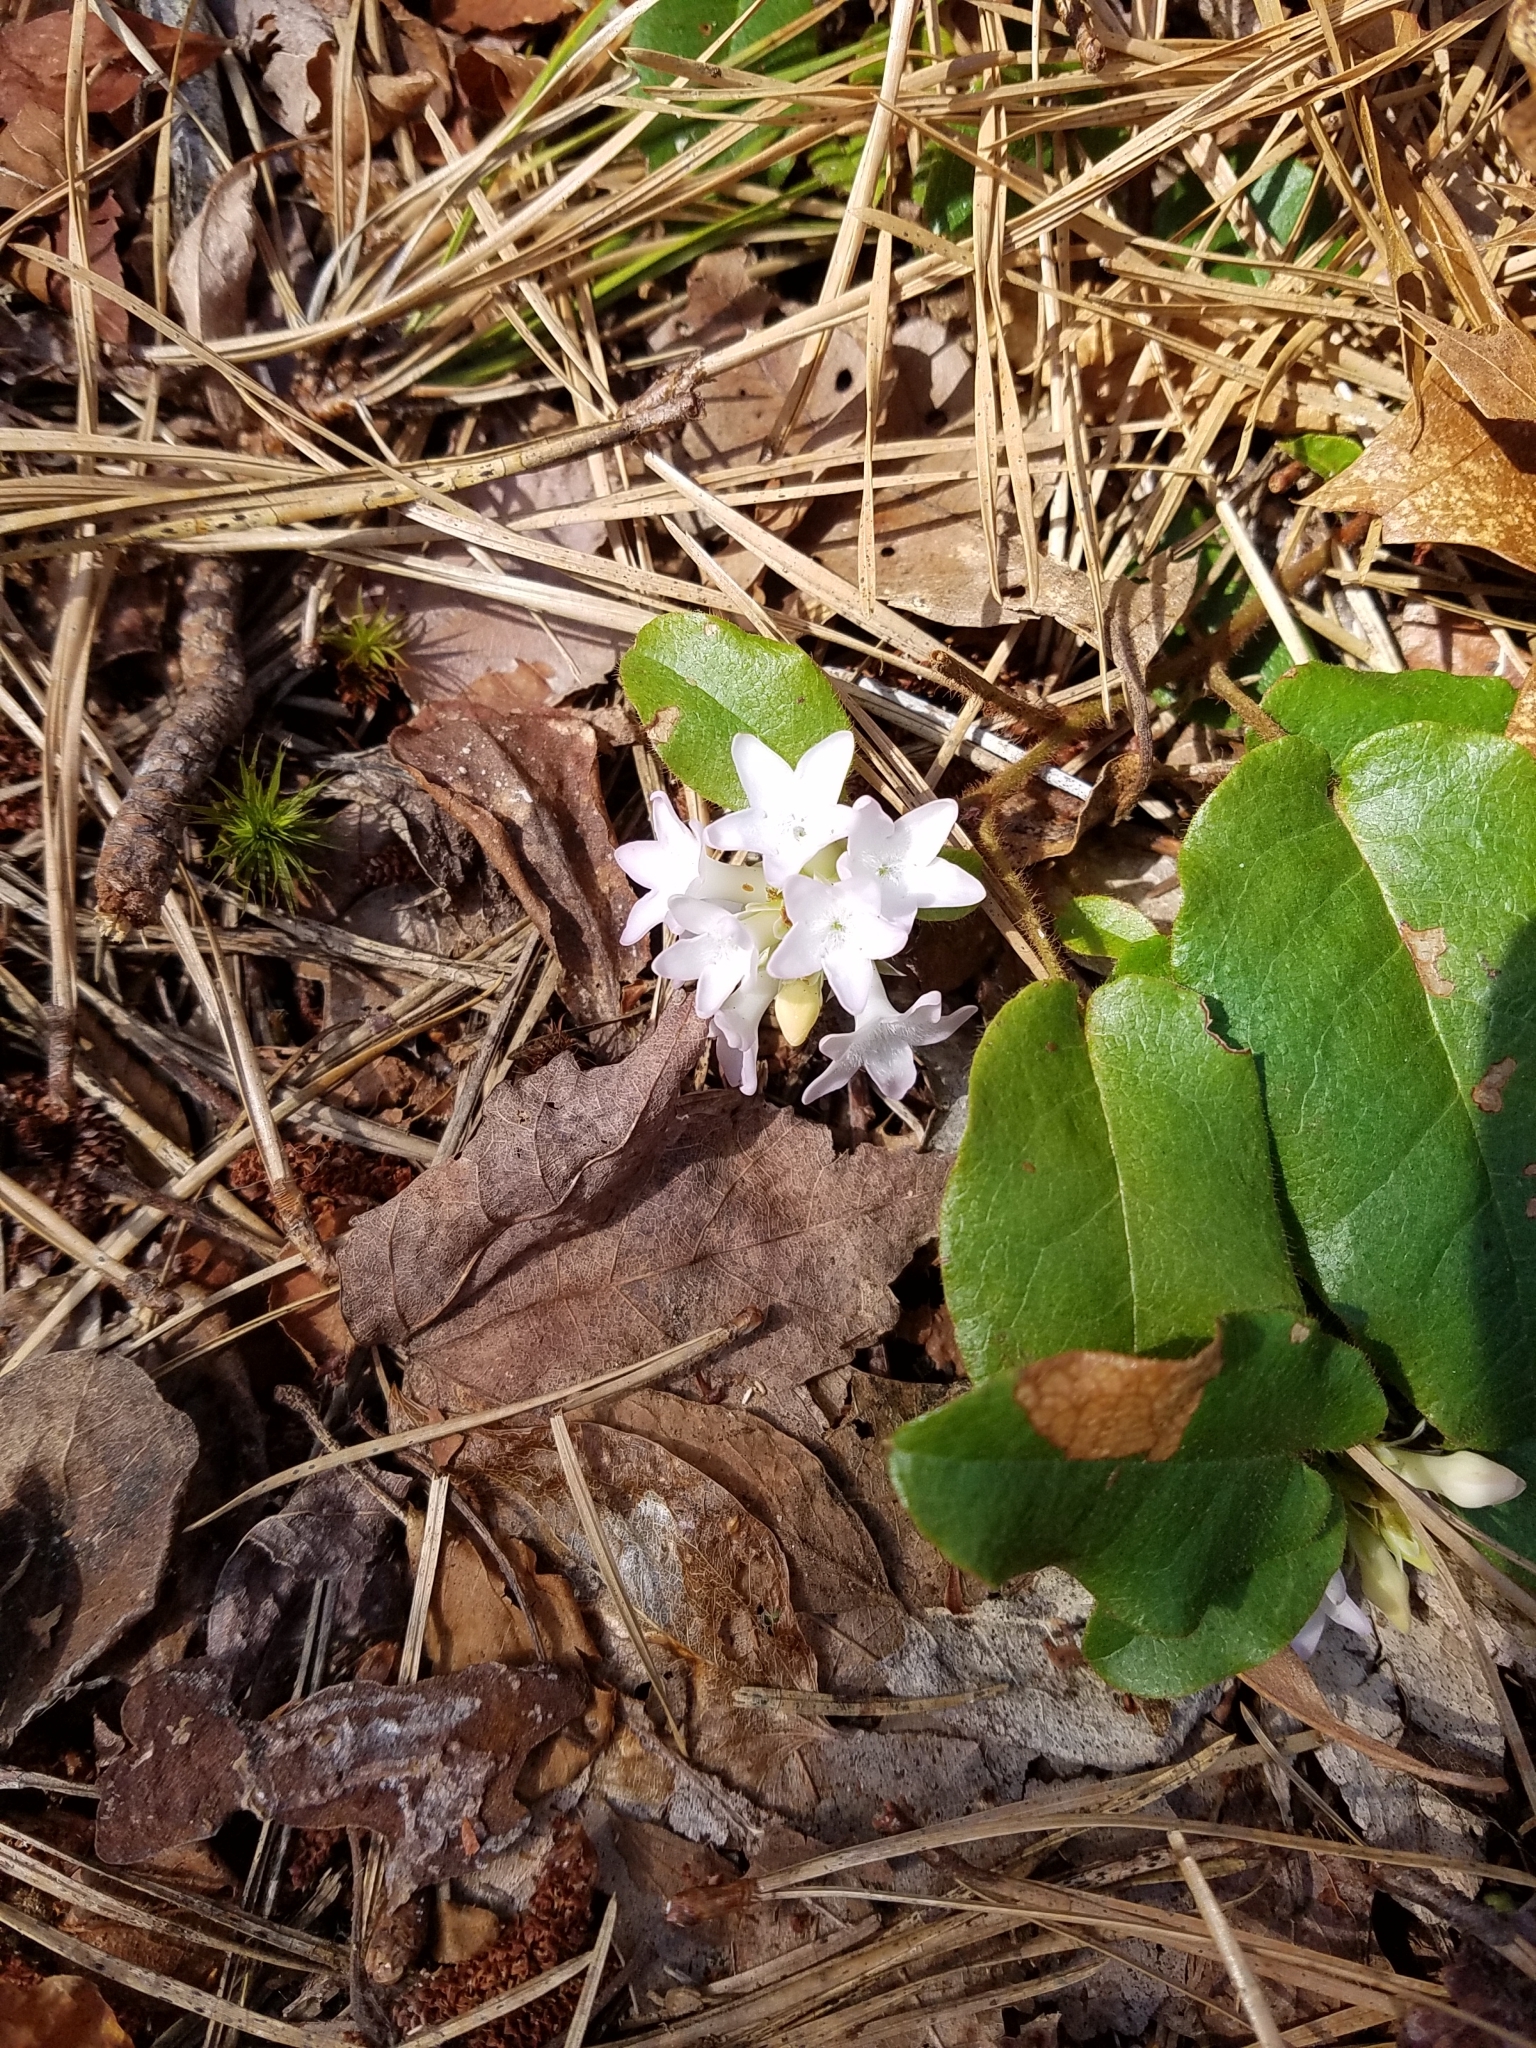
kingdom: Plantae
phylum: Tracheophyta
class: Magnoliopsida
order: Ericales
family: Ericaceae
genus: Epigaea
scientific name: Epigaea repens
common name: Gravelroot
